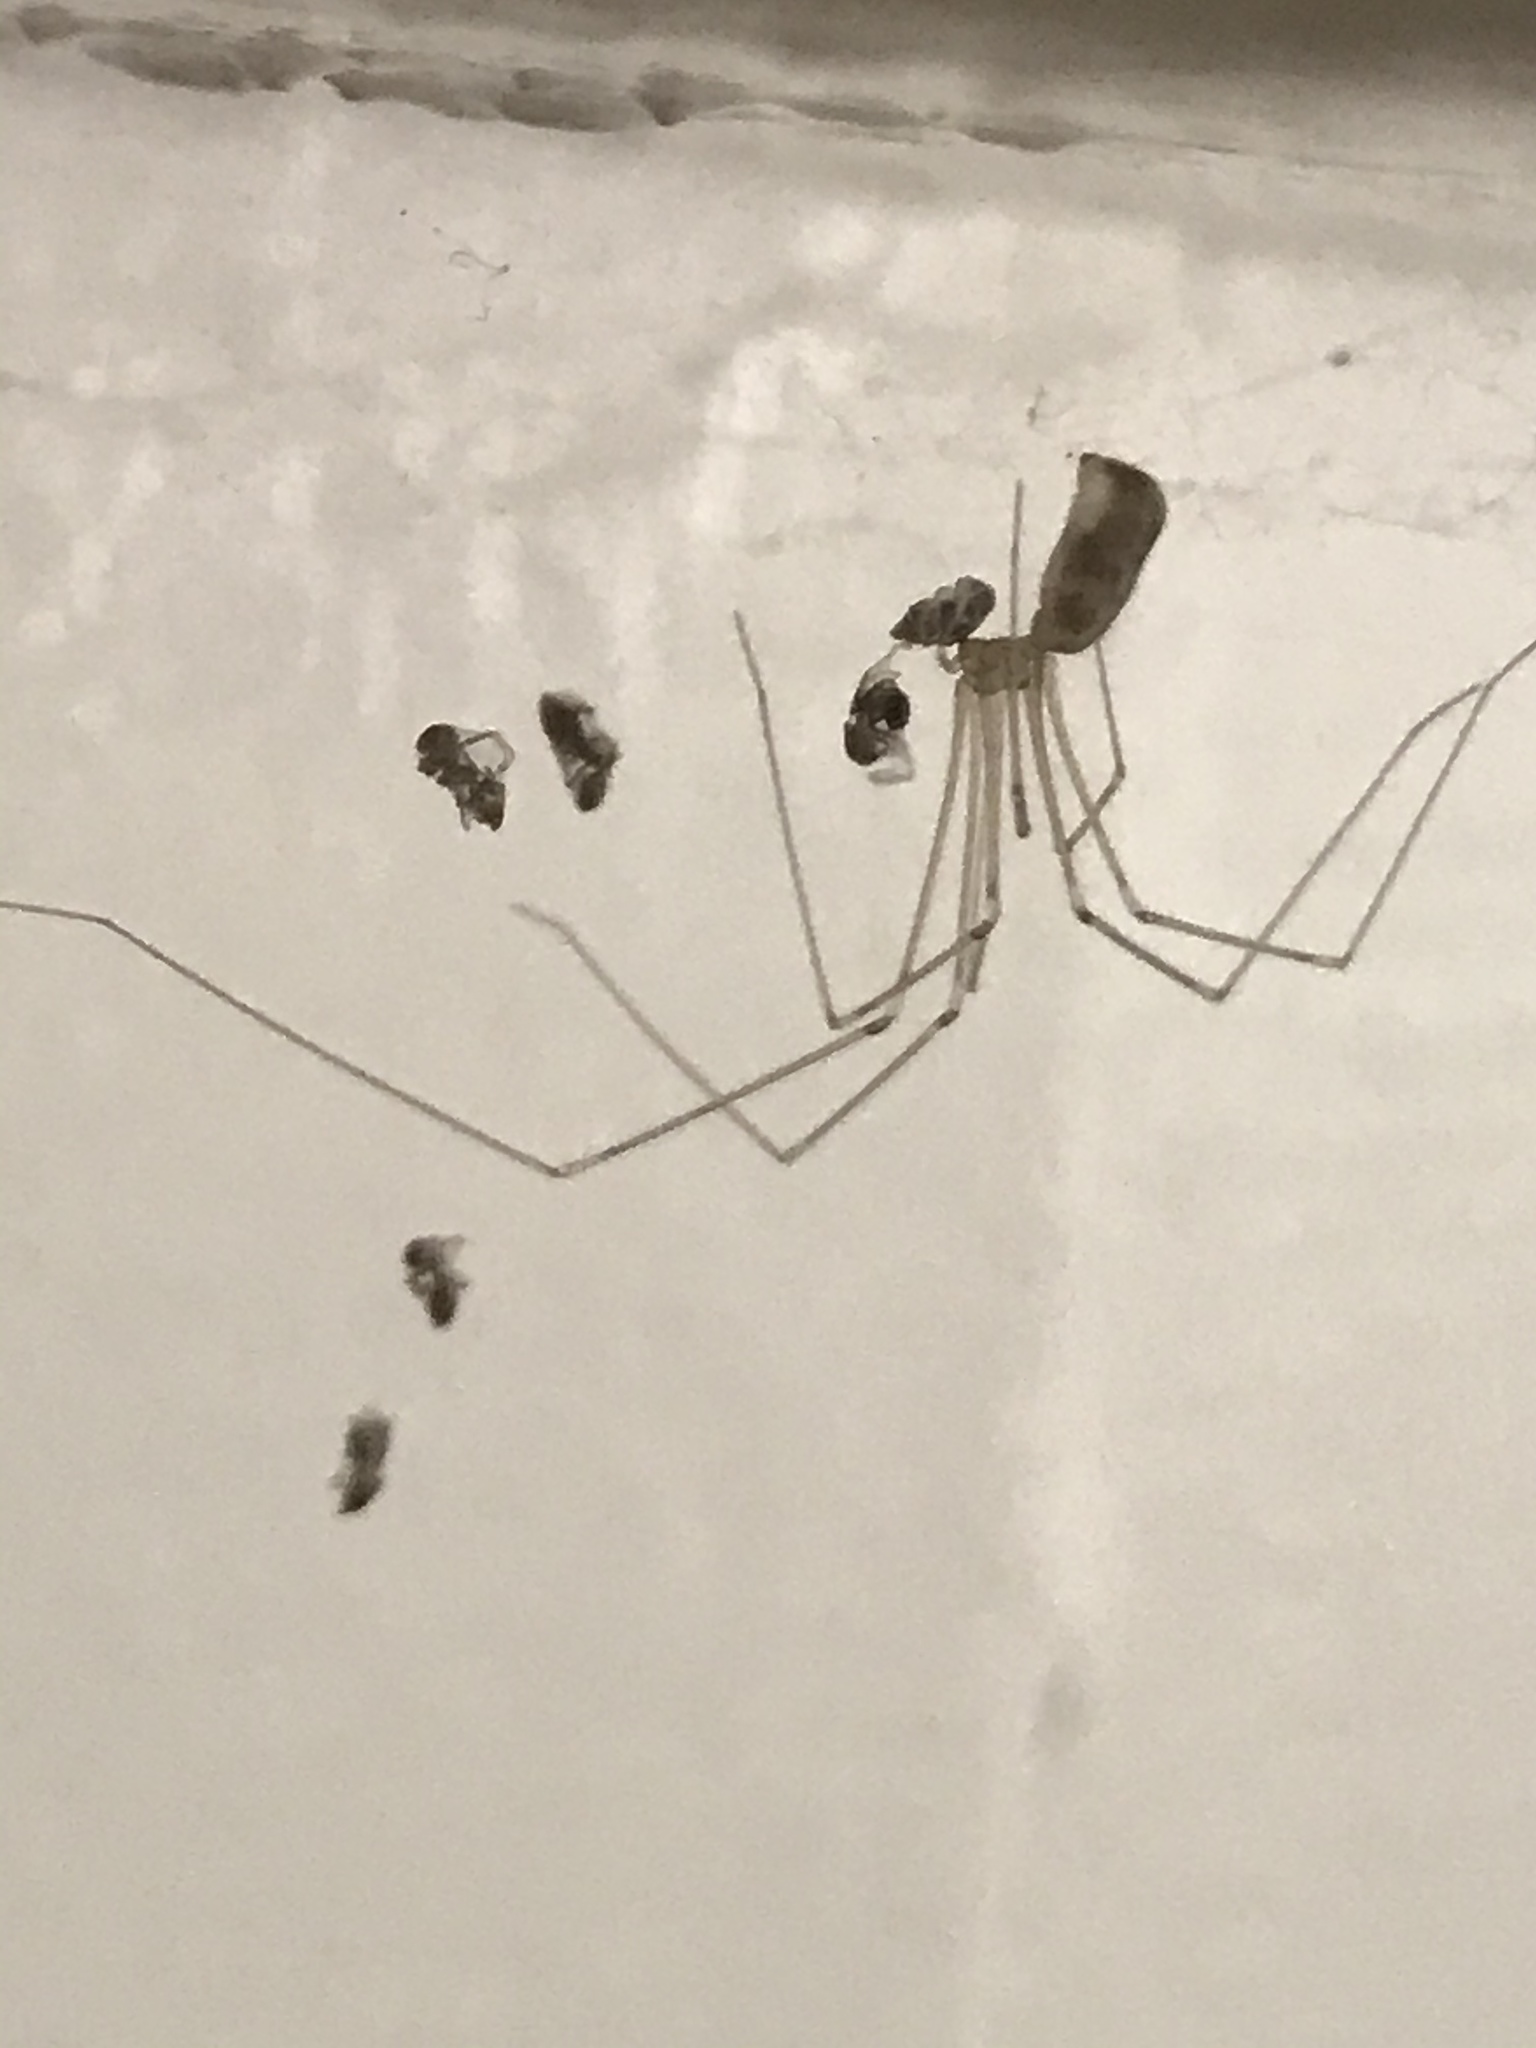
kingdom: Animalia
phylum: Arthropoda
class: Insecta
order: Hymenoptera
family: Formicidae
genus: Linepithema
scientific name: Linepithema humile
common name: Argentine ant
